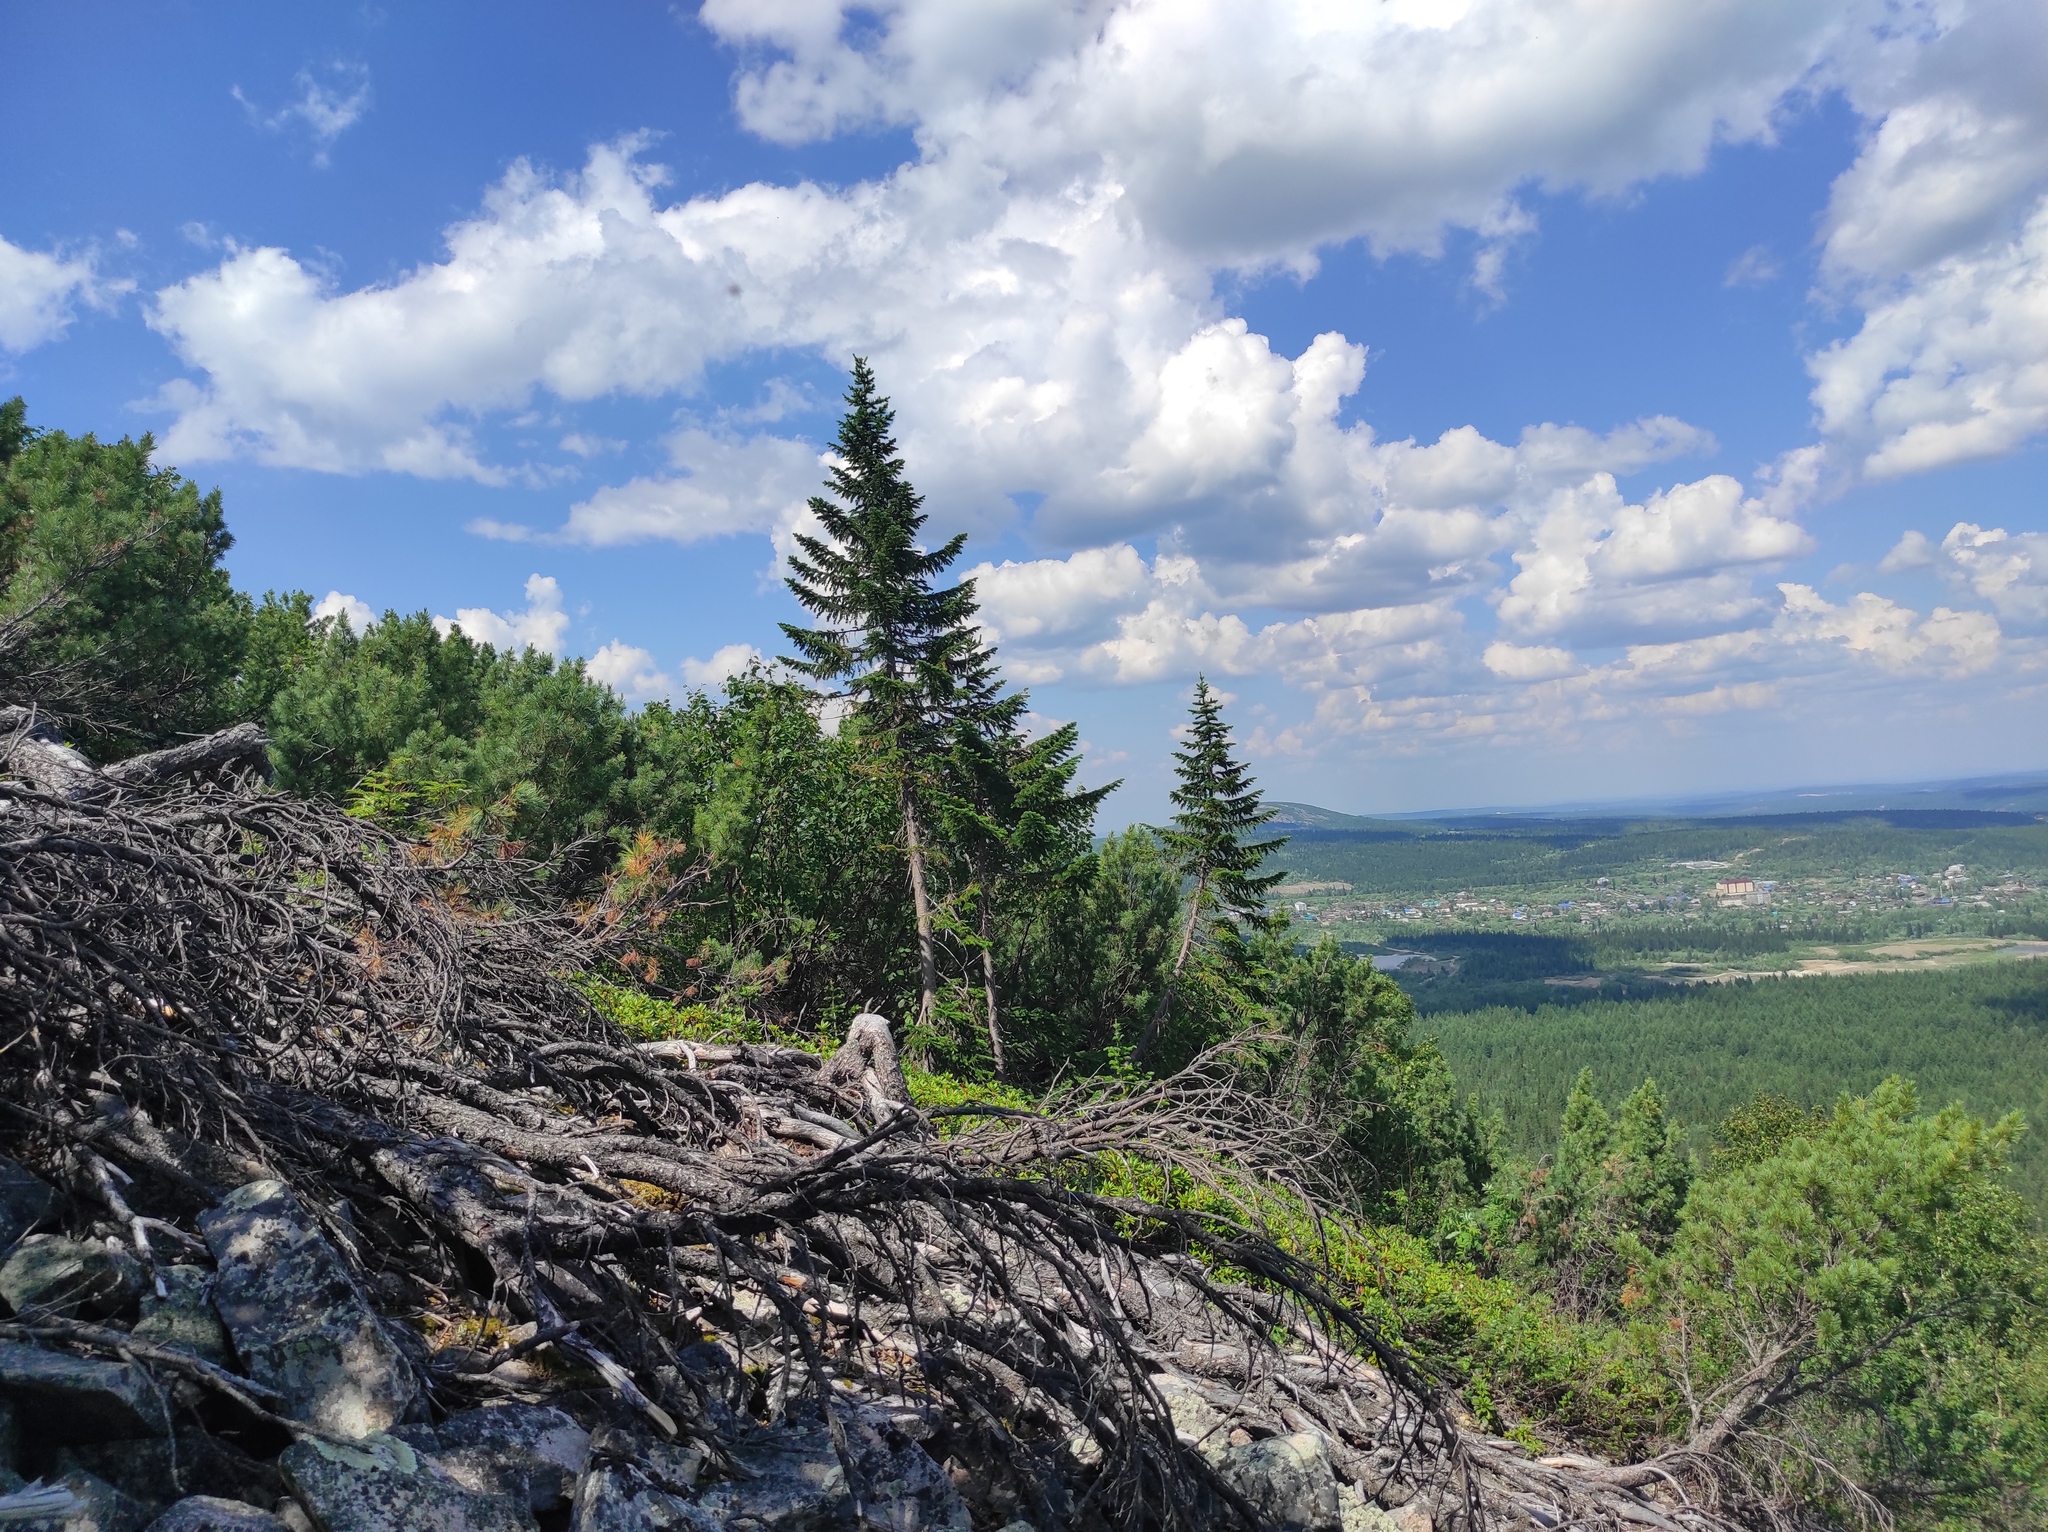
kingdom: Plantae
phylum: Tracheophyta
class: Pinopsida
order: Pinales
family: Pinaceae
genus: Abies
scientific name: Abies sibirica
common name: Siberian fir
